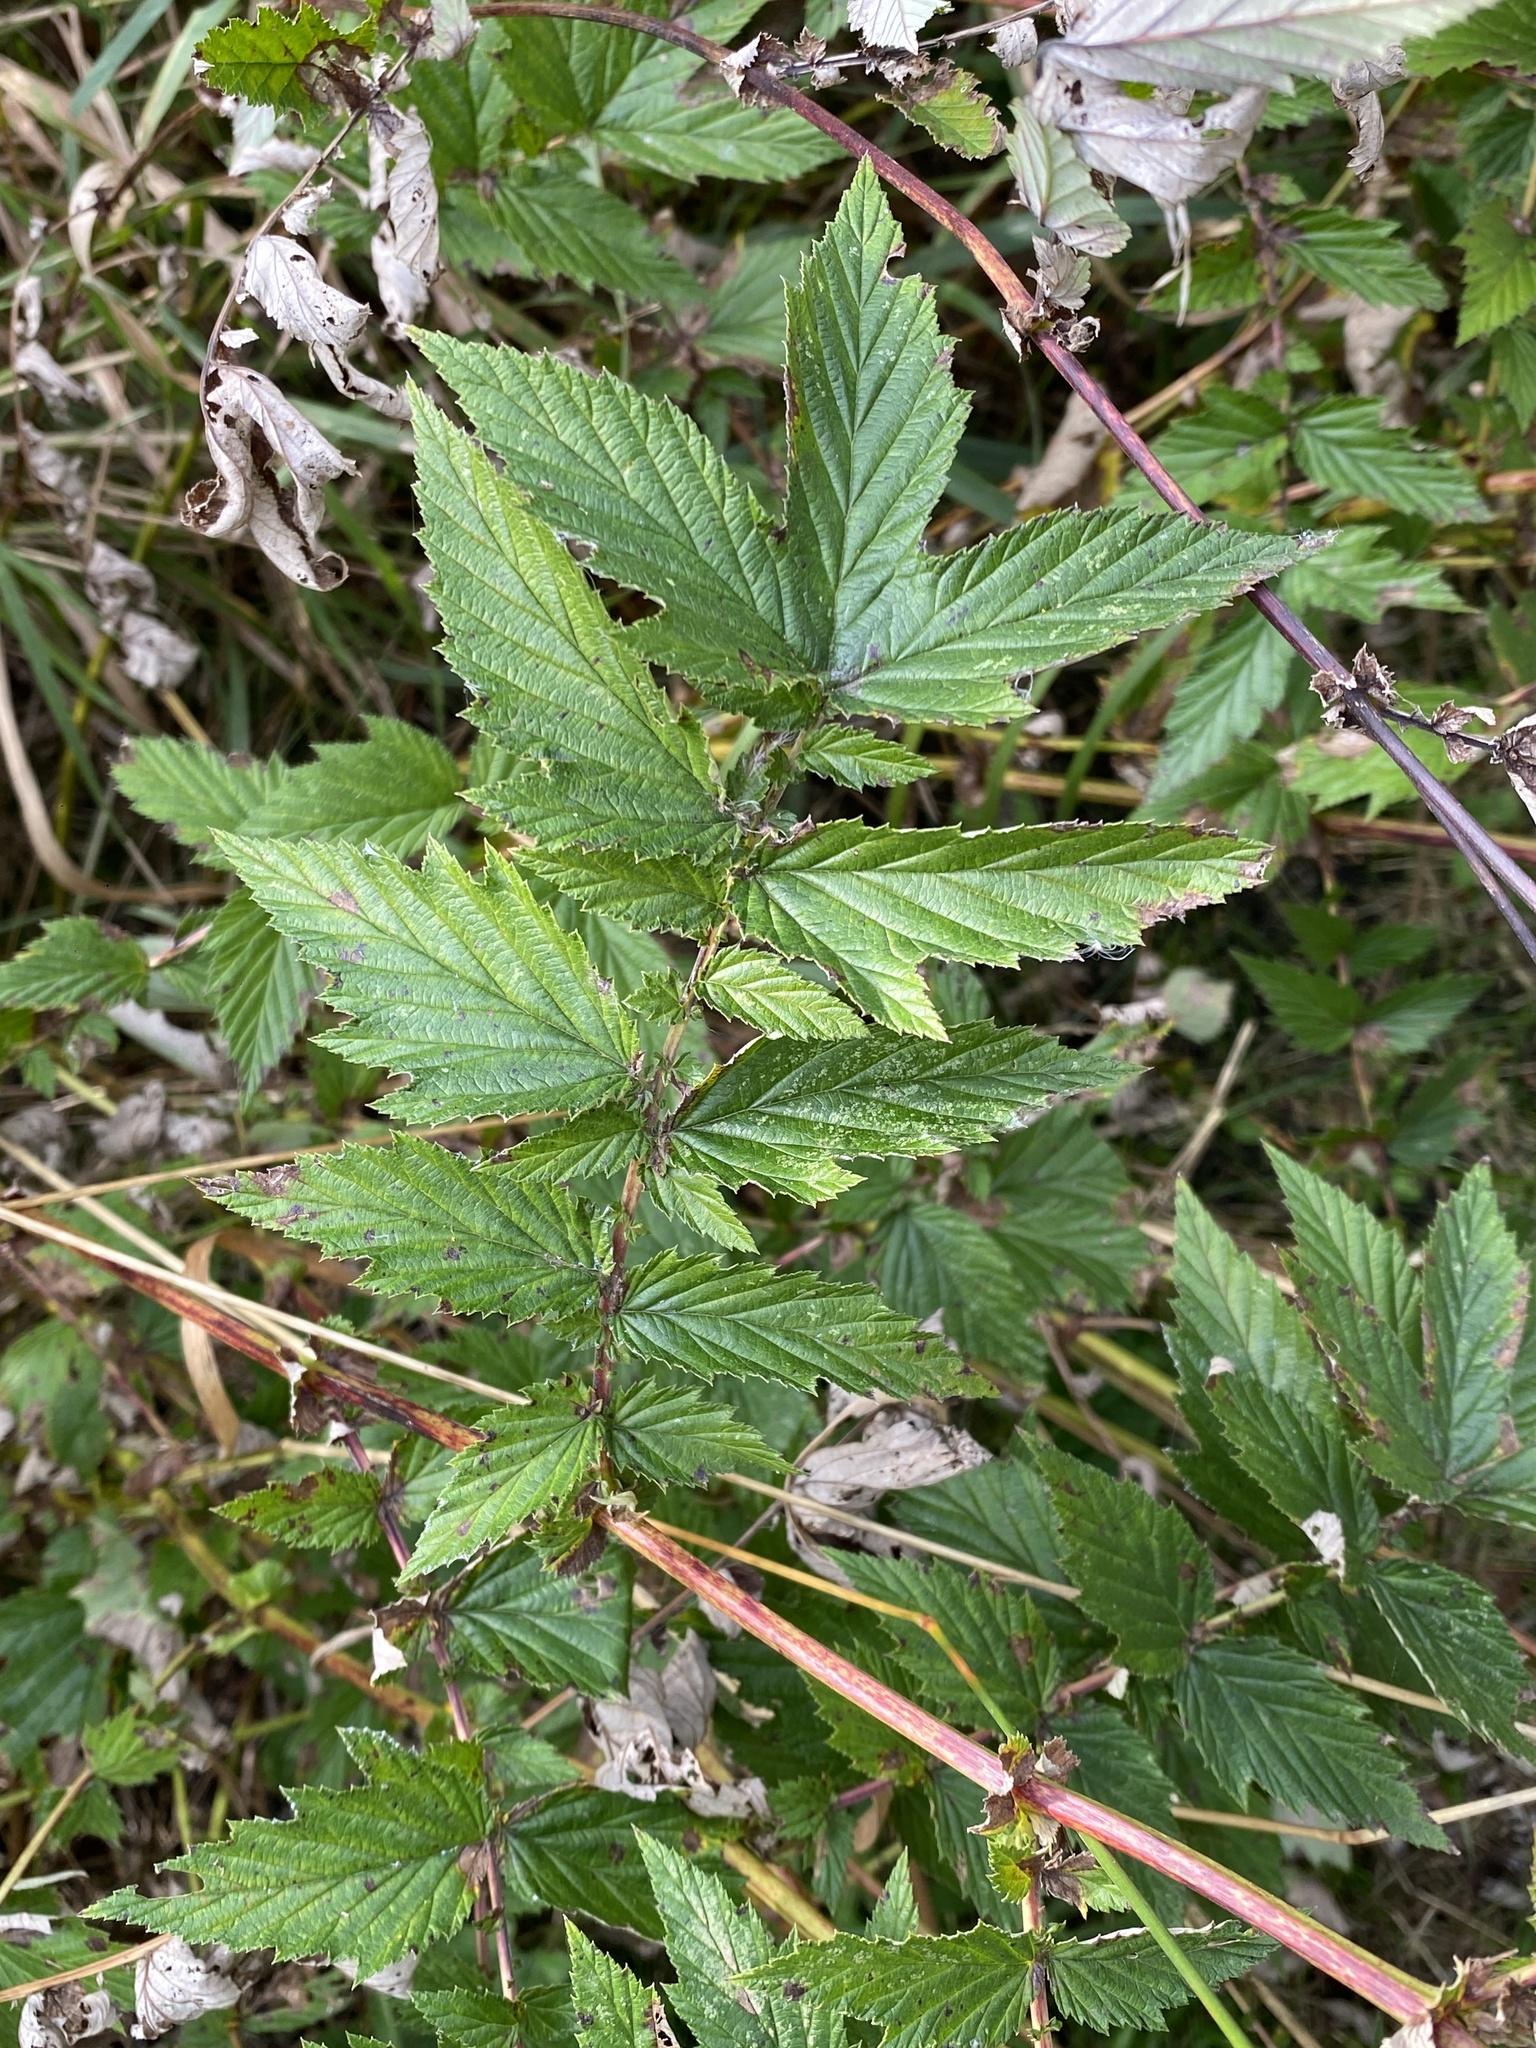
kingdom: Plantae
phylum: Tracheophyta
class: Magnoliopsida
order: Rosales
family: Rosaceae
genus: Filipendula
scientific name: Filipendula ulmaria
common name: Meadowsweet
